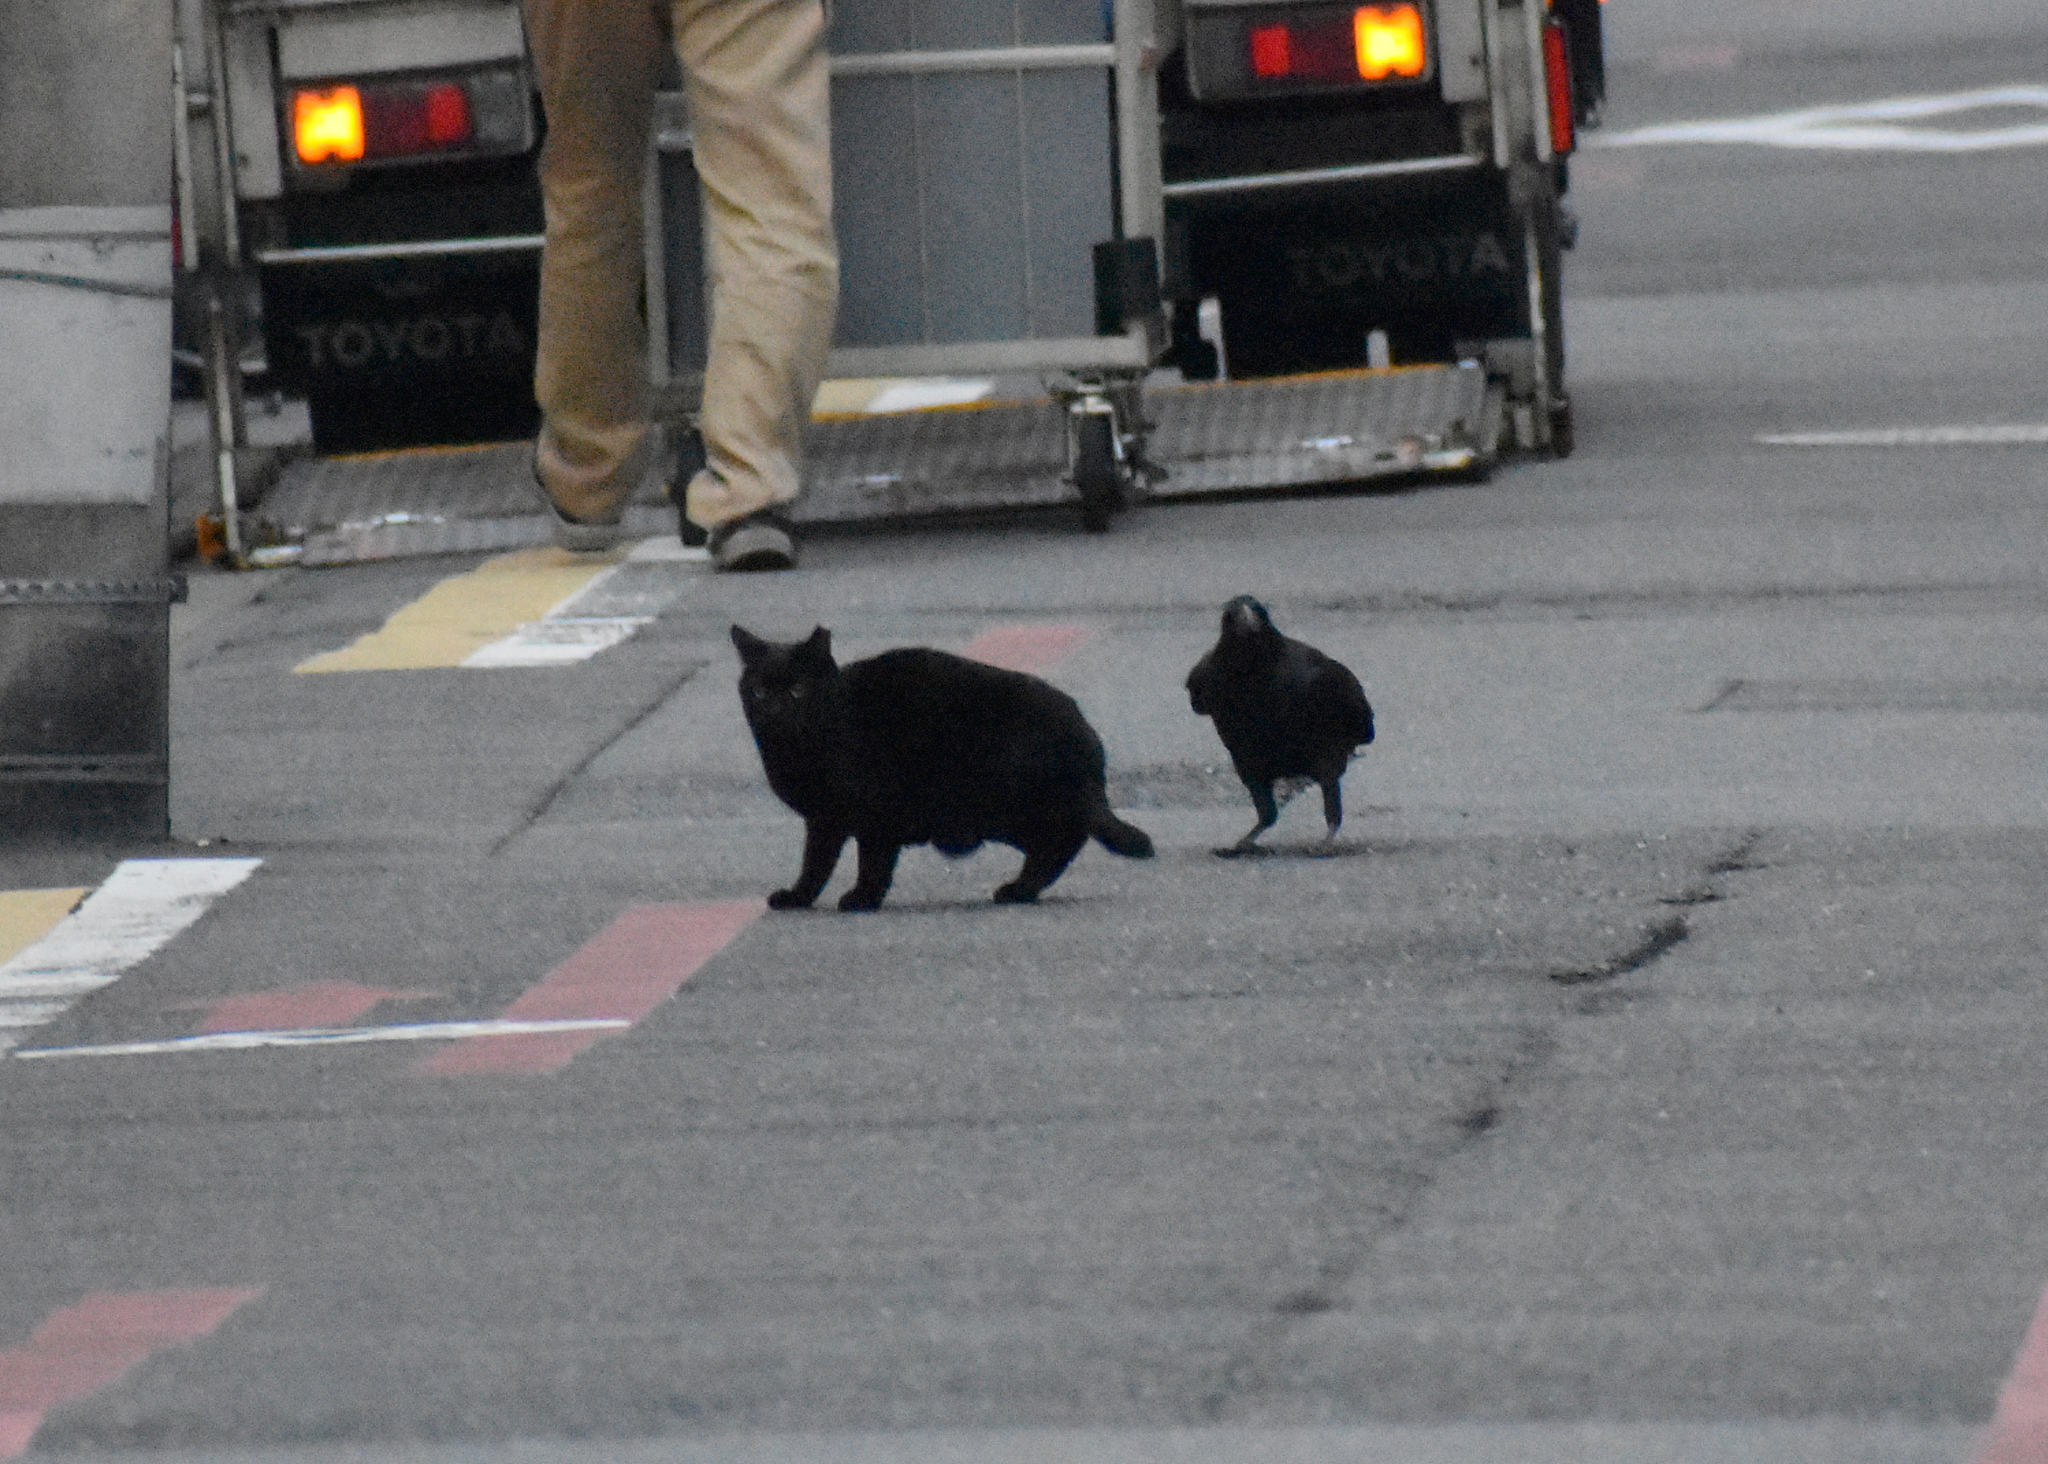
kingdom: Animalia
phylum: Chordata
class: Mammalia
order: Carnivora
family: Felidae
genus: Felis
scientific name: Felis catus
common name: Domestic cat
